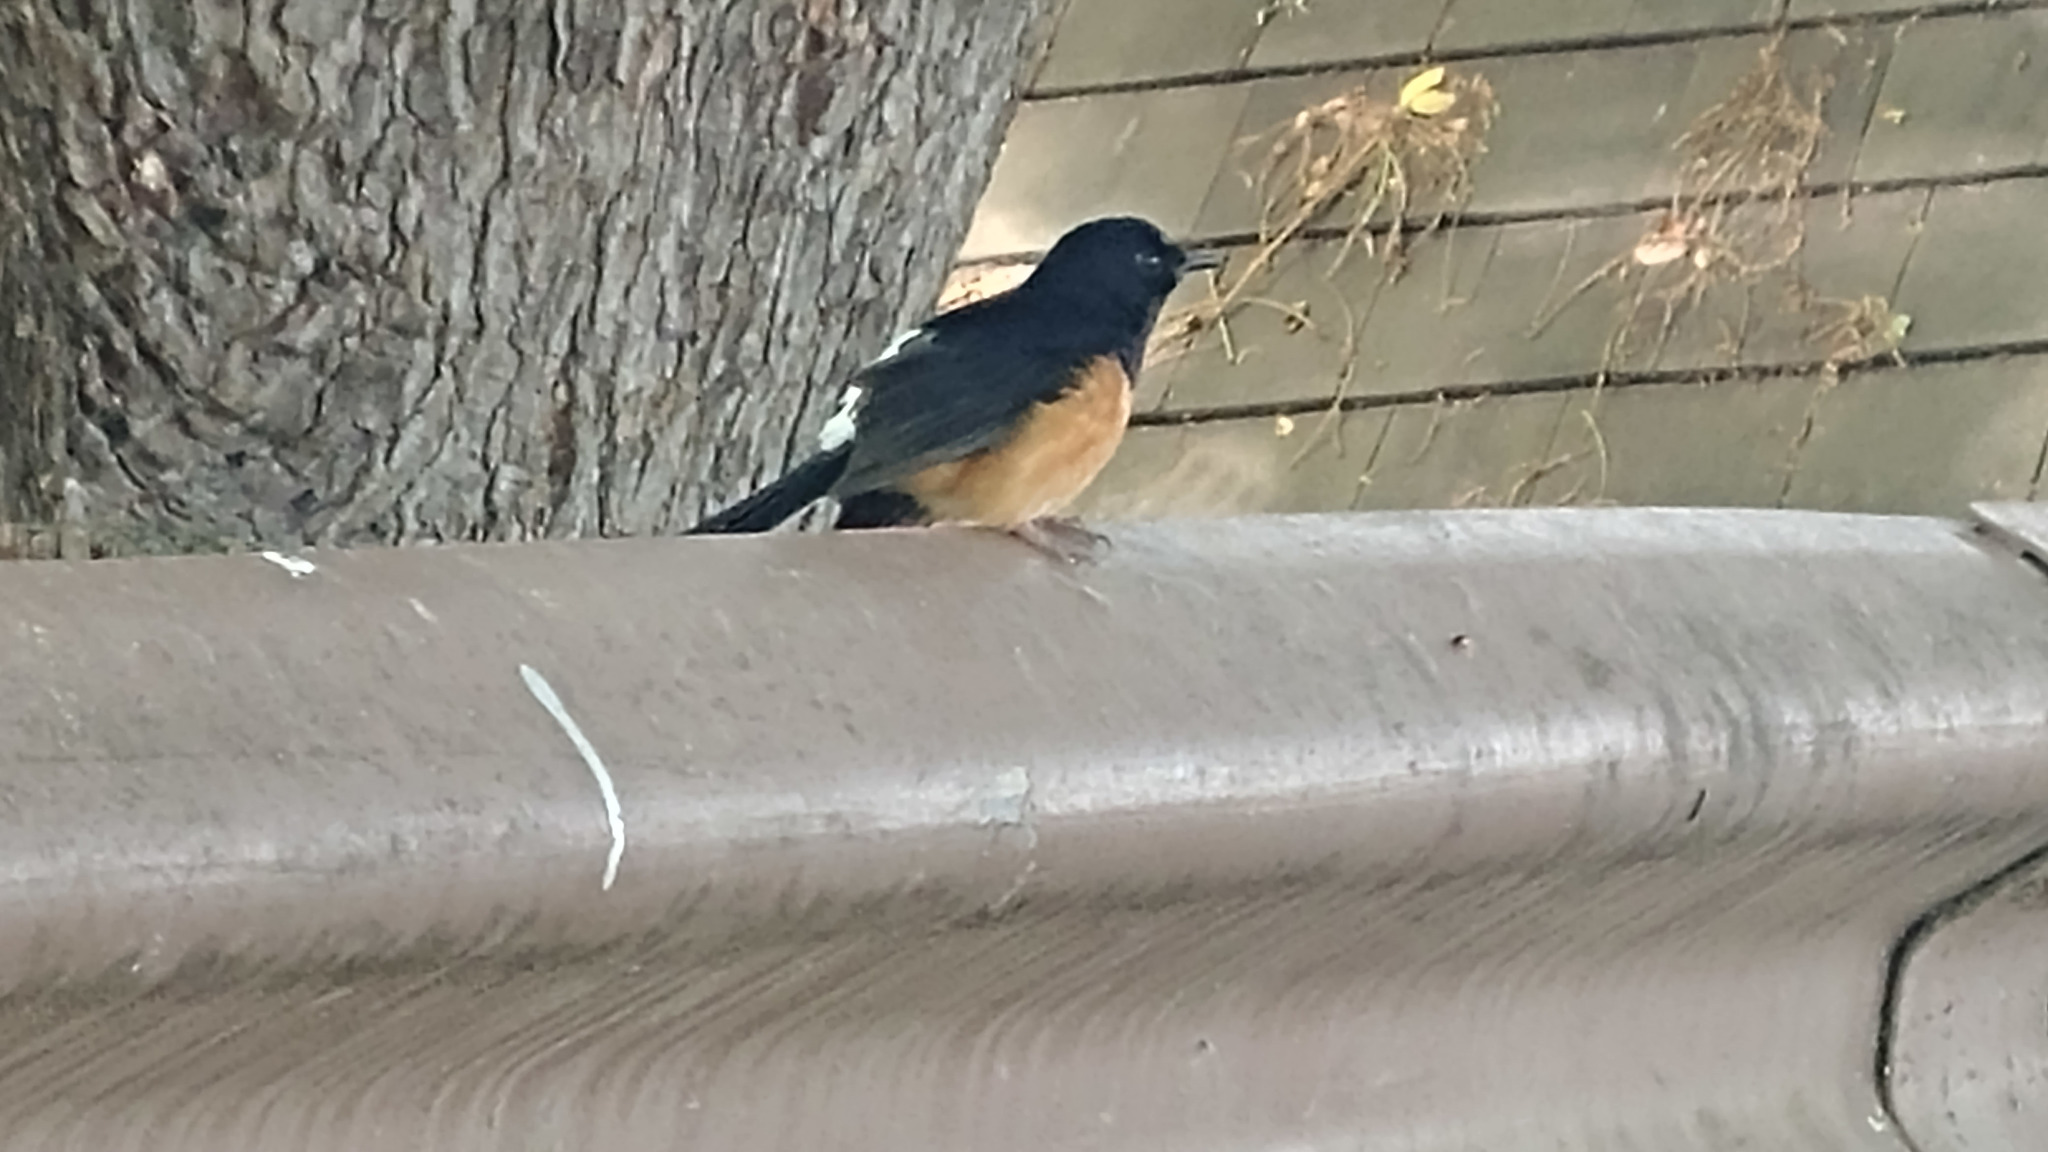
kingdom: Animalia
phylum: Chordata
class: Aves
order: Passeriformes
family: Muscicapidae
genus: Copsychus
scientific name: Copsychus malabaricus
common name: White-rumped shama
